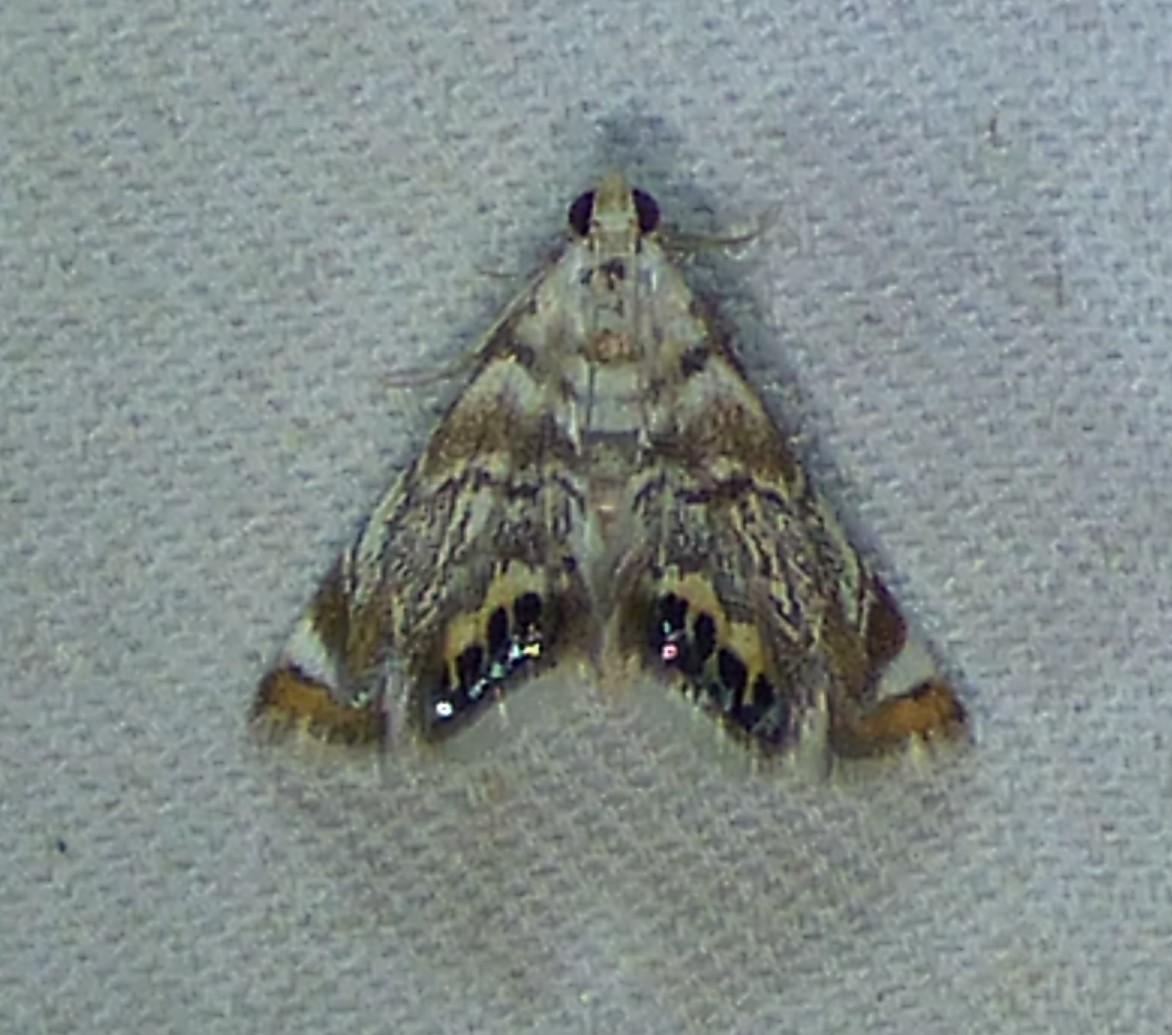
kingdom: Animalia
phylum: Arthropoda
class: Insecta
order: Lepidoptera
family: Crambidae
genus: Eoparargyractis
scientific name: Eoparargyractis irroratalis
